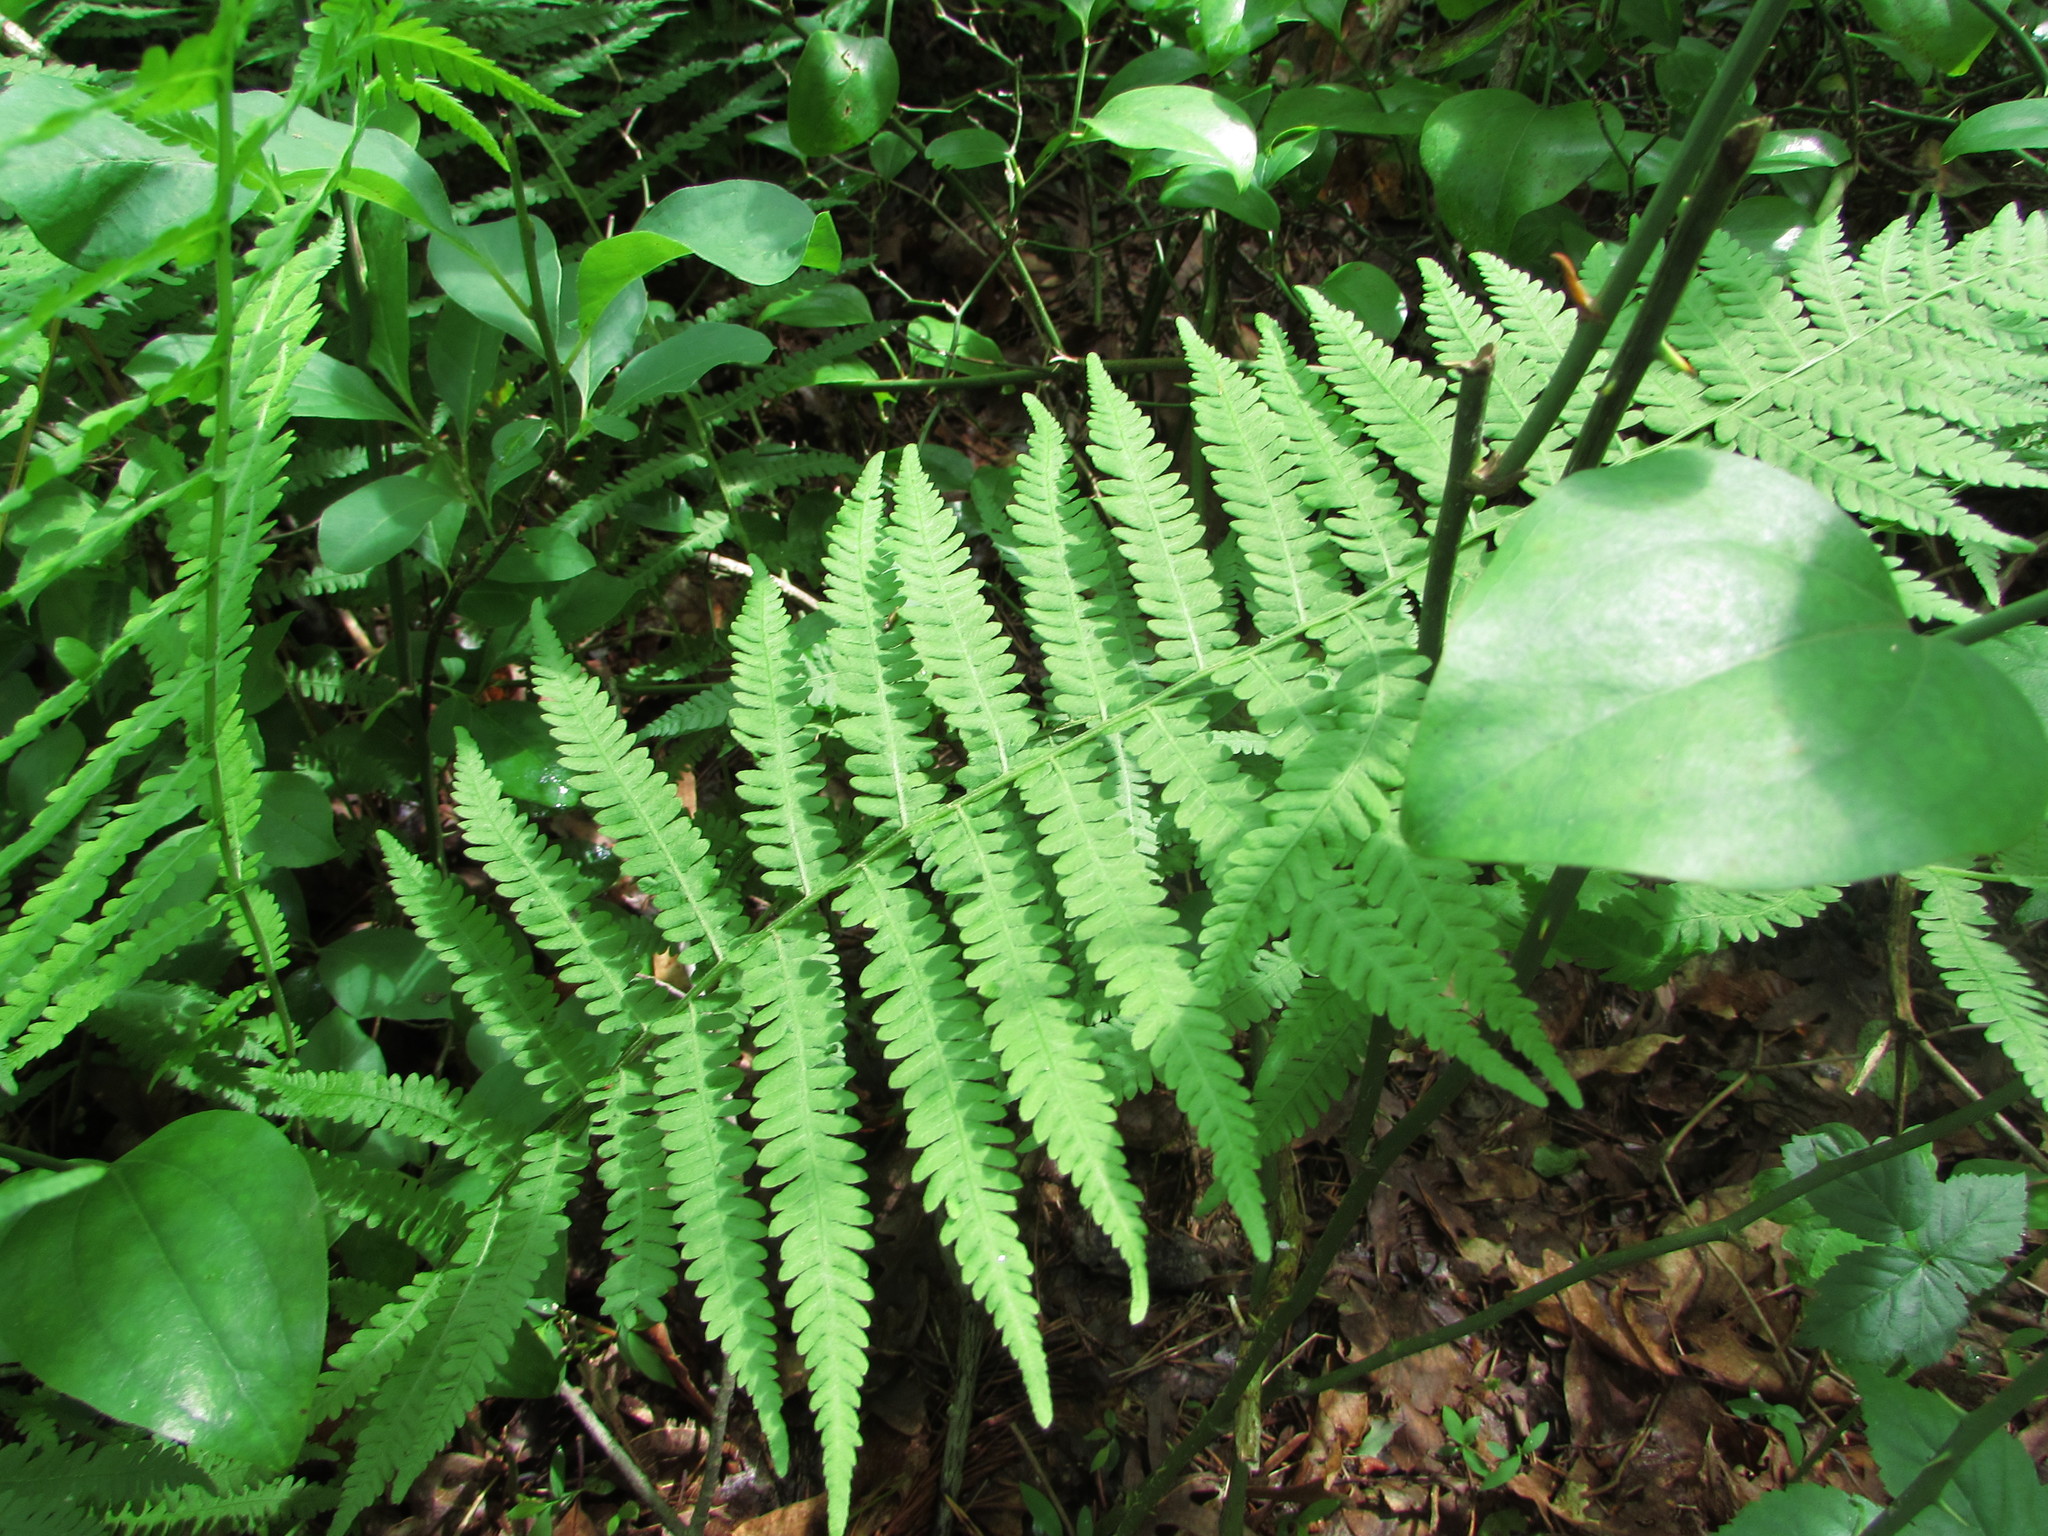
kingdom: Plantae
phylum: Tracheophyta
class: Polypodiopsida
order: Polypodiales
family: Athyriaceae
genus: Deparia
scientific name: Deparia acrostichoides
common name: Silver false spleenwort
